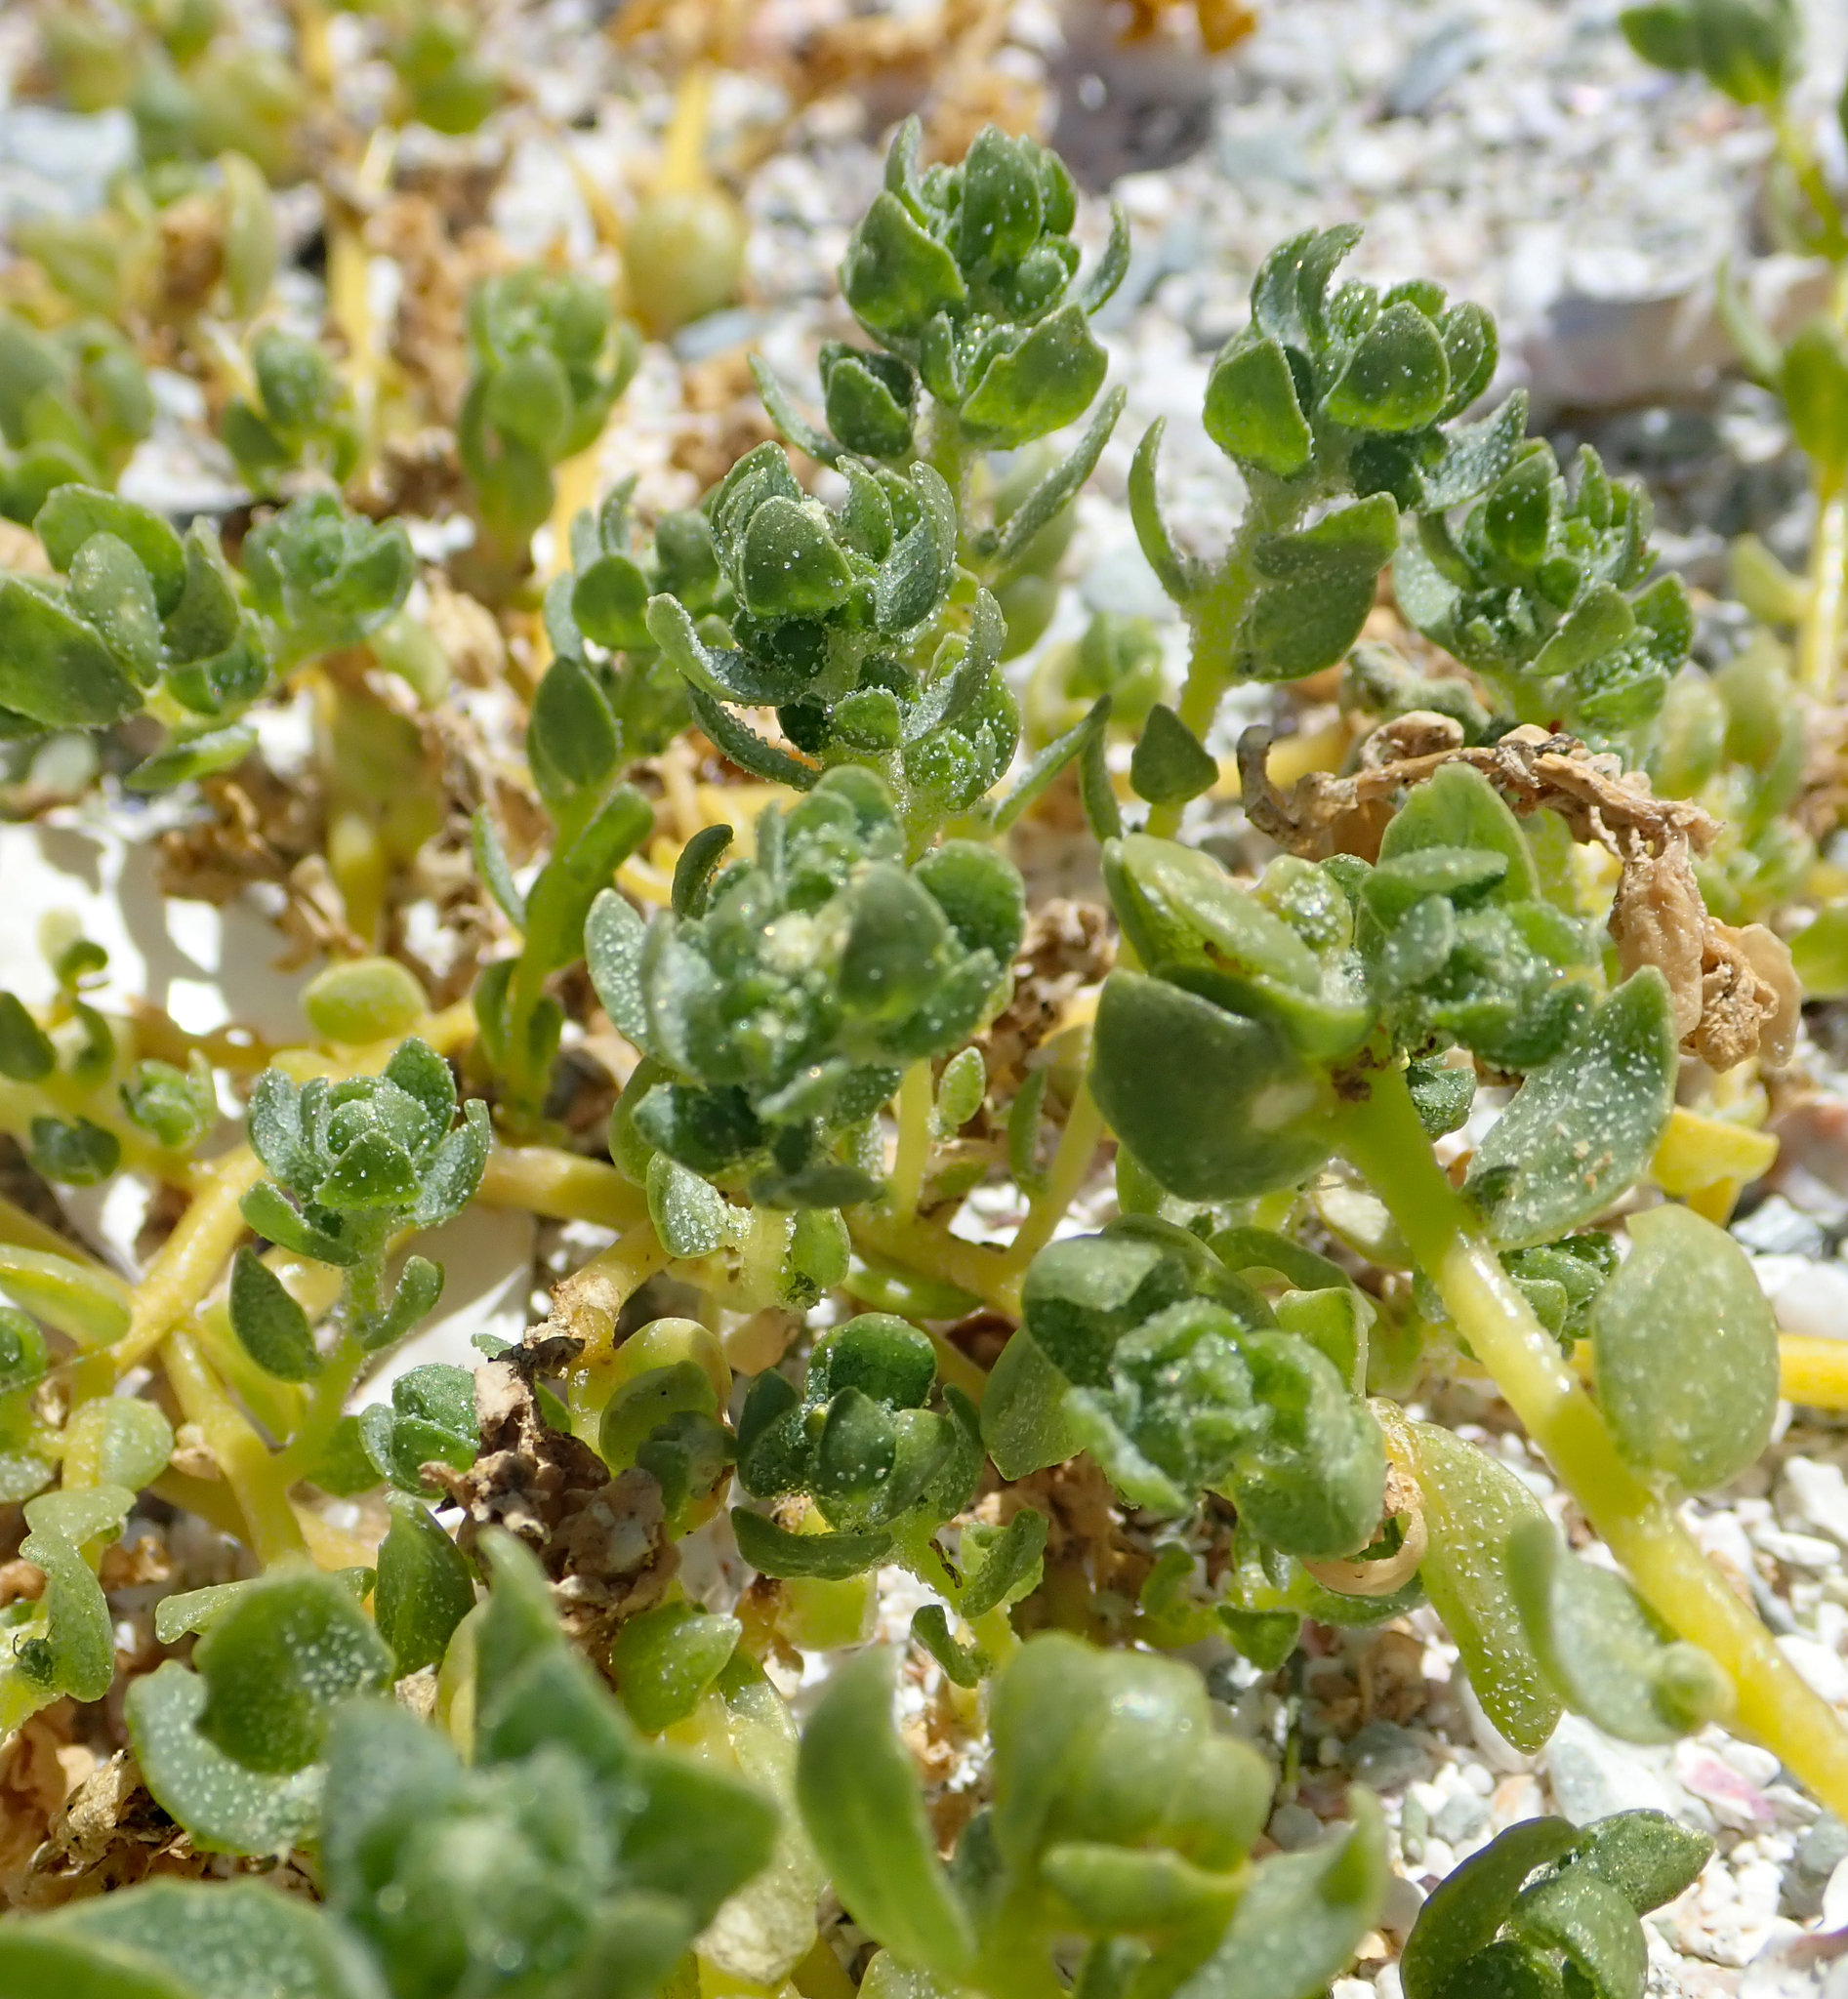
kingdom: Plantae
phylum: Tracheophyta
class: Magnoliopsida
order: Caryophyllales
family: Amaranthaceae
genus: Atriplex
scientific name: Atriplex billardierei
